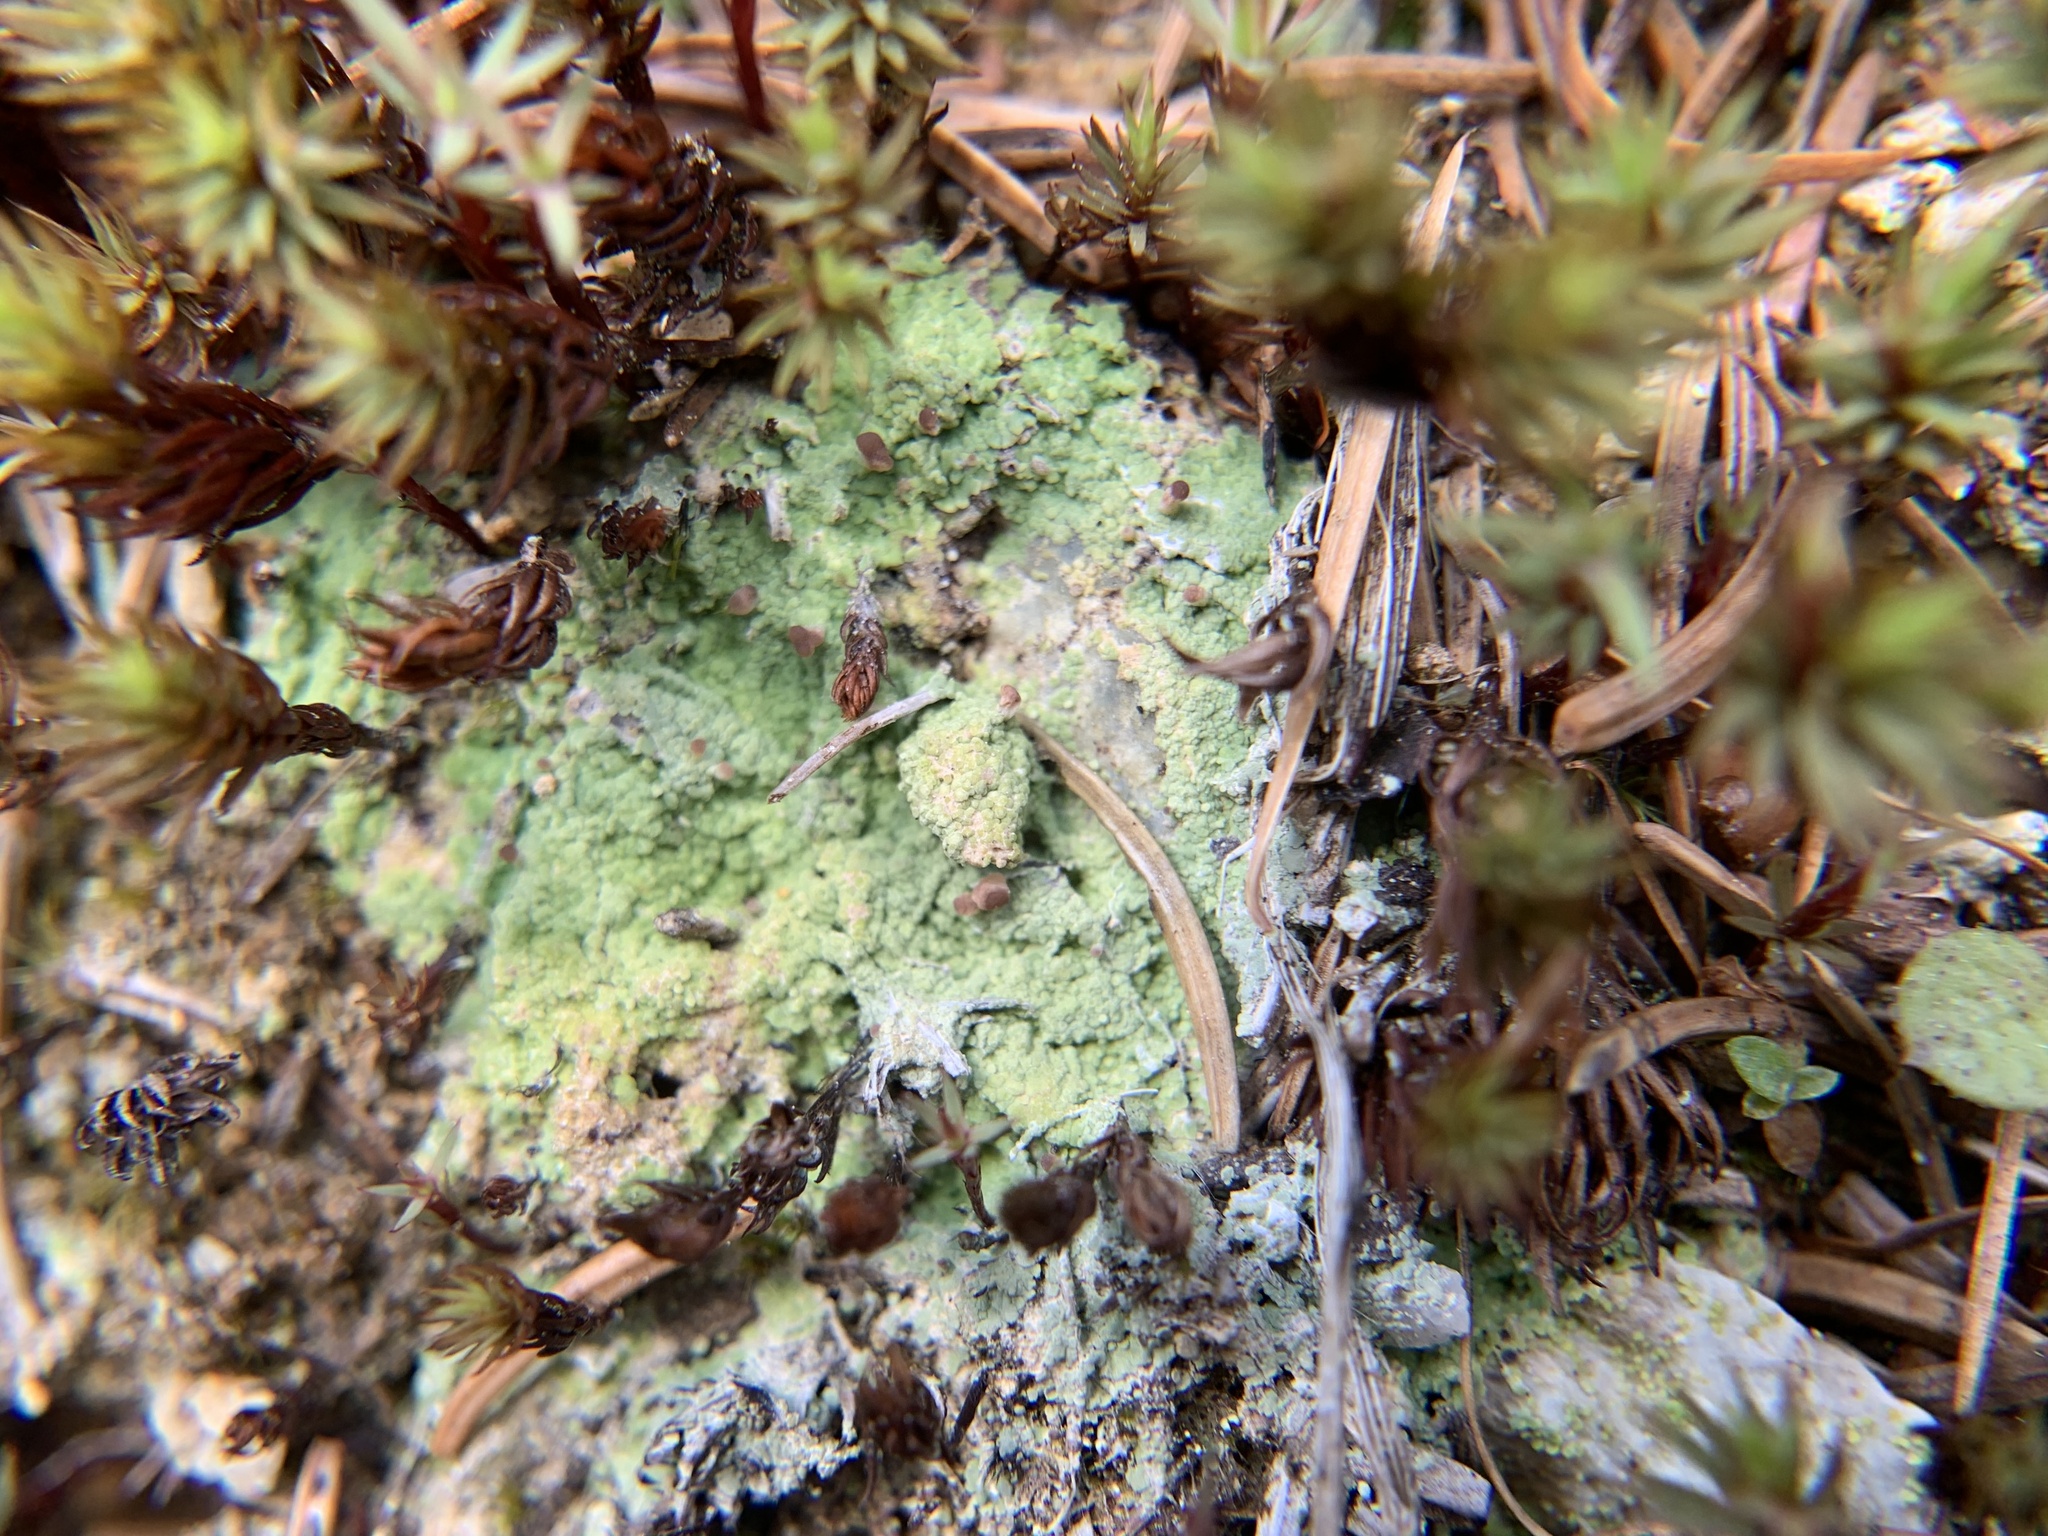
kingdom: Fungi
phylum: Ascomycota
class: Lecanoromycetes
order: Baeomycetales
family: Baeomycetaceae
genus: Baeomyces
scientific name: Baeomyces rufus
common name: Brown beret lichen
